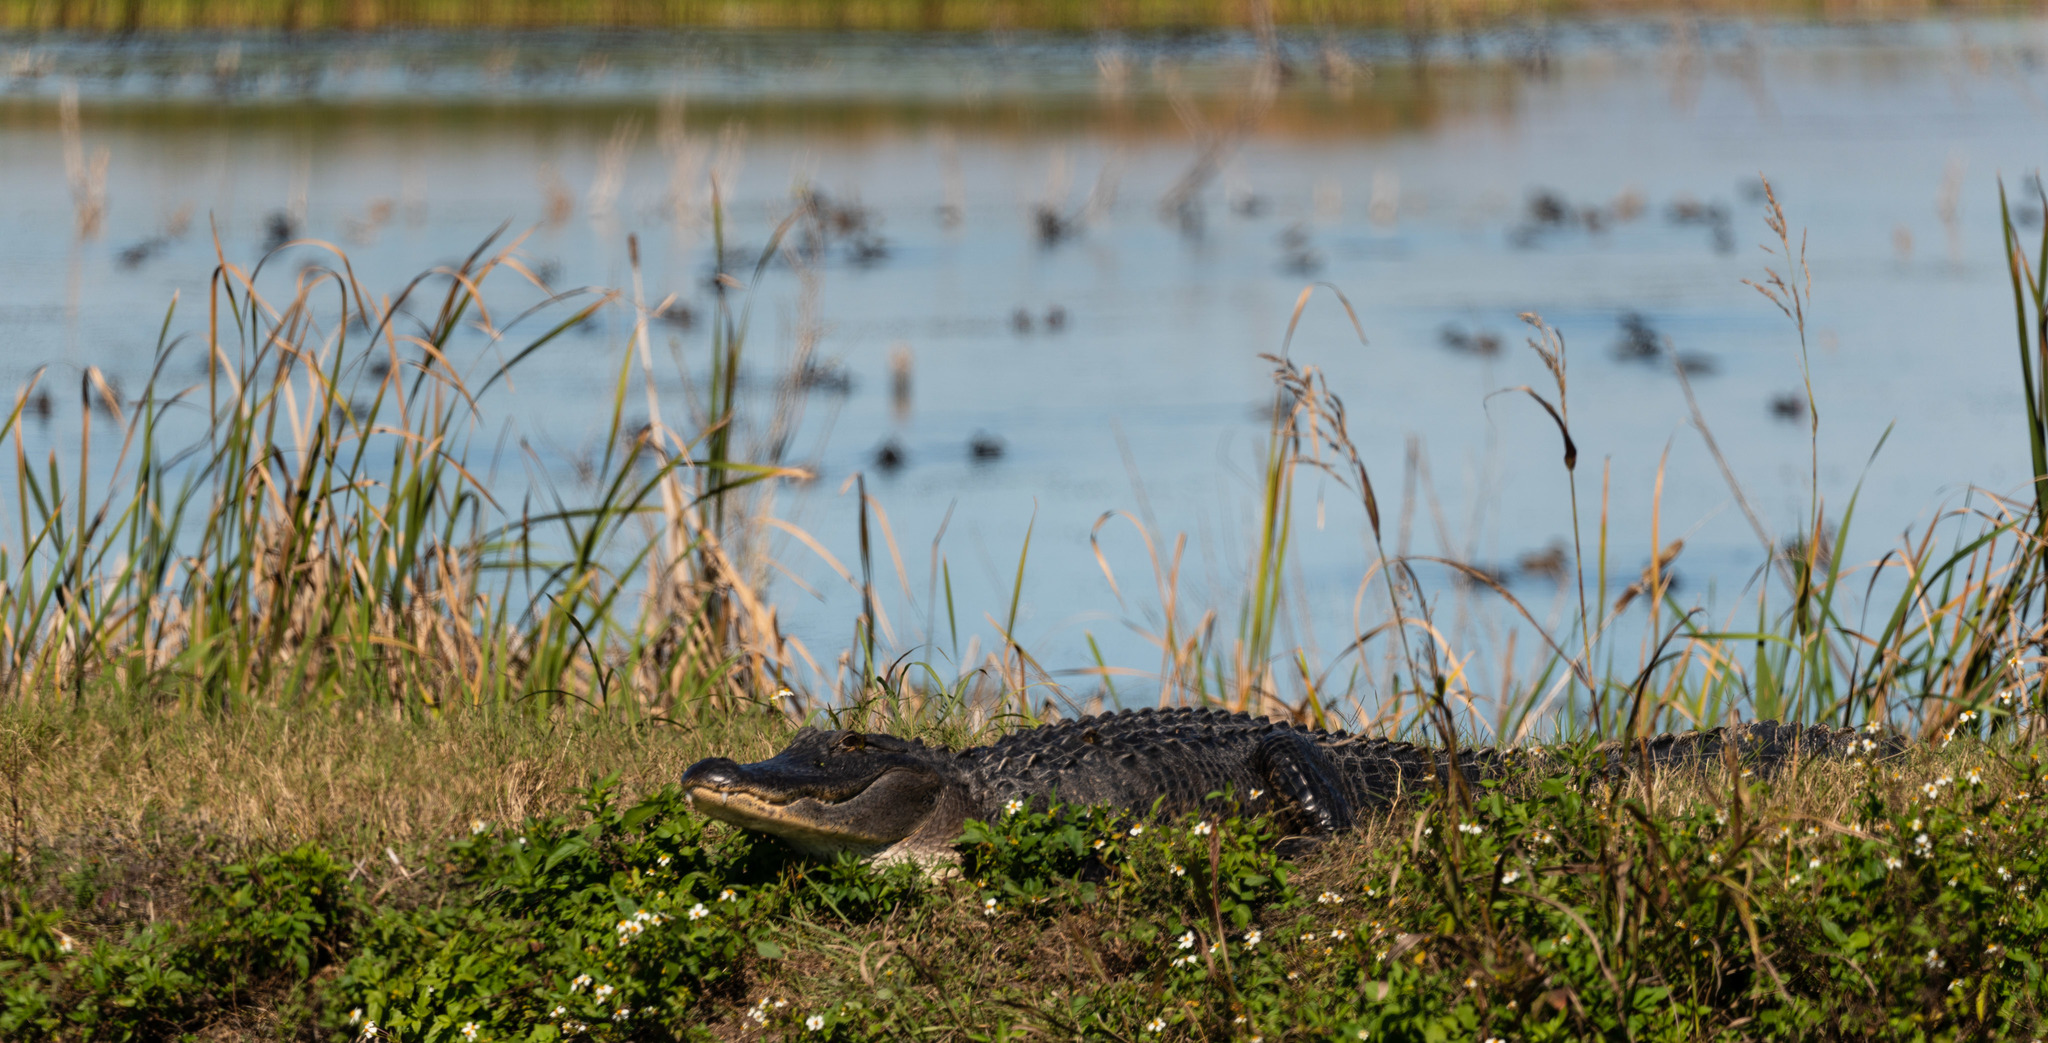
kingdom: Animalia
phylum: Chordata
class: Crocodylia
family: Alligatoridae
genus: Alligator
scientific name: Alligator mississippiensis
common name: American alligator
